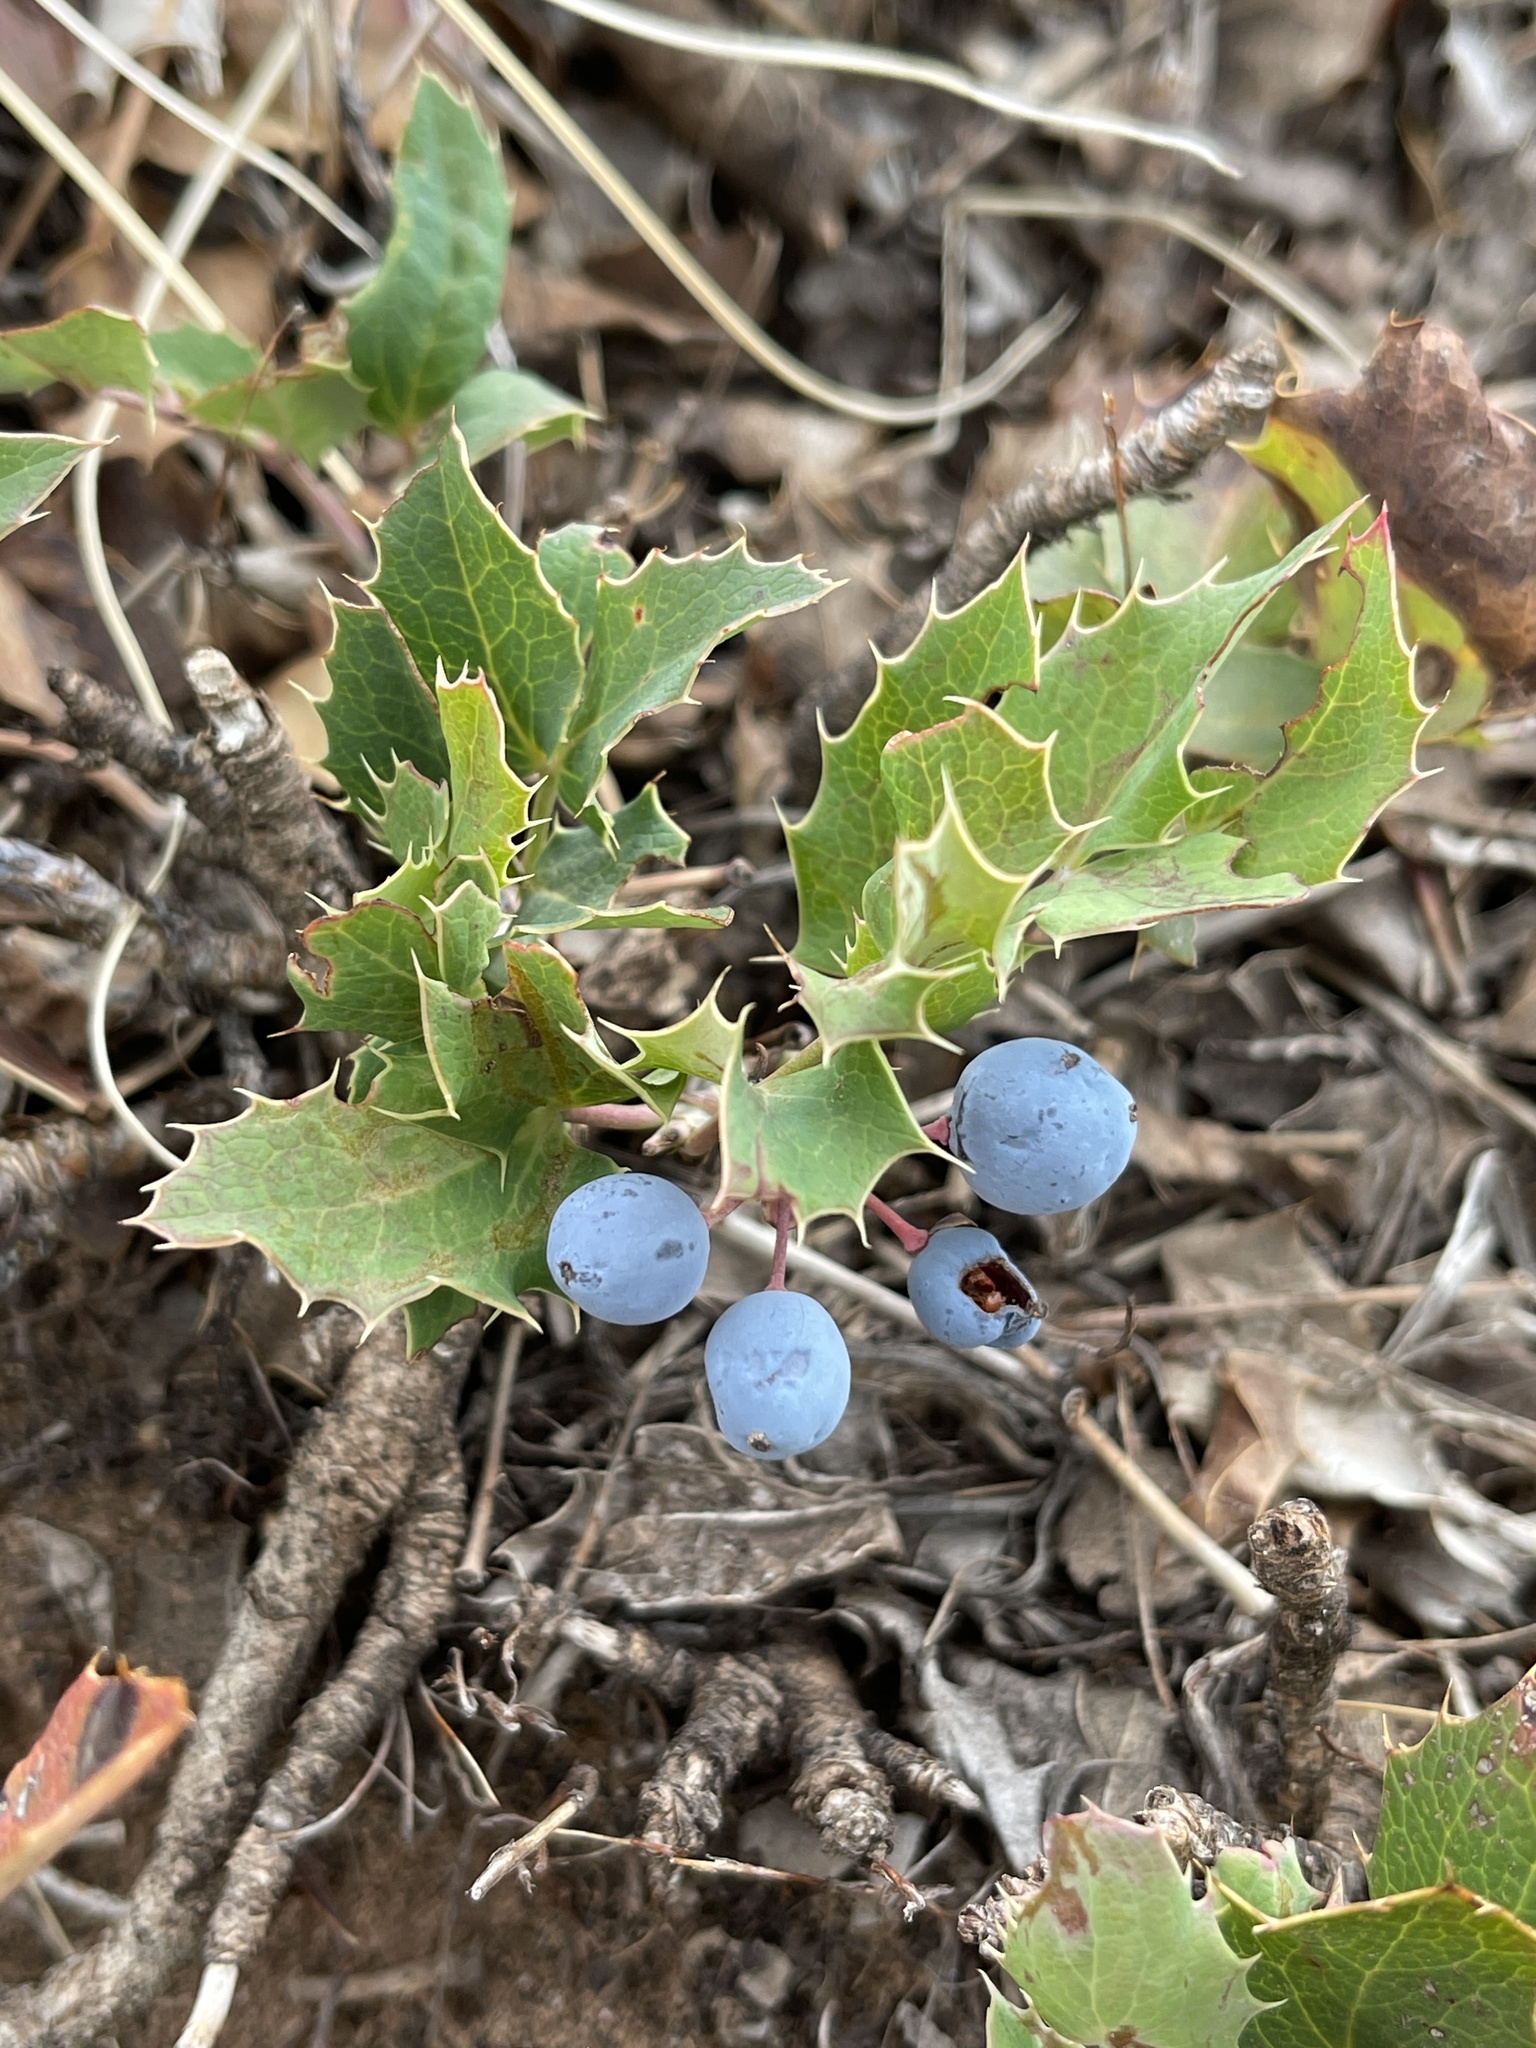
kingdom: Plantae
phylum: Tracheophyta
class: Magnoliopsida
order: Ranunculales
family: Berberidaceae
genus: Mahonia
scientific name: Mahonia repens
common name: Creeping oregon-grape
